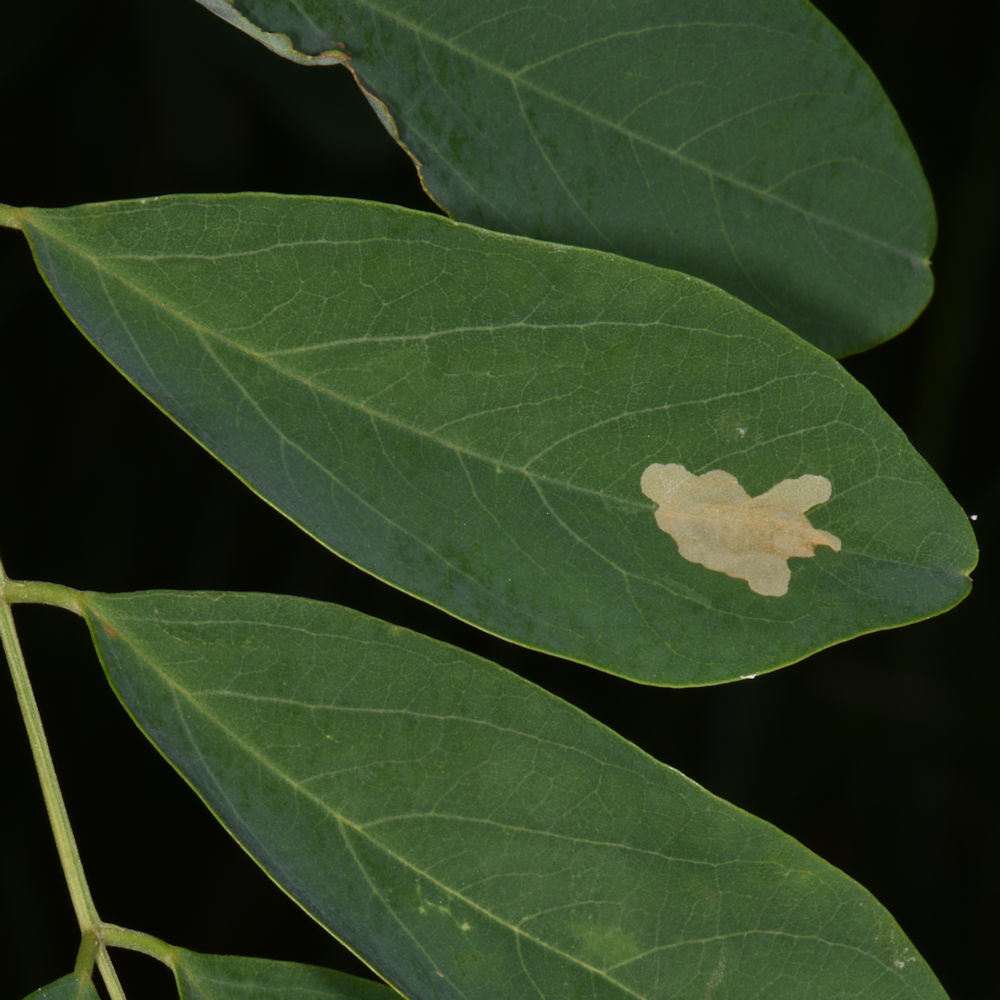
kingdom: Animalia
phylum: Arthropoda
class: Insecta
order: Lepidoptera
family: Gracillariidae
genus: Parectopa
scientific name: Parectopa robiniella
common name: Locust digitate leafminer
